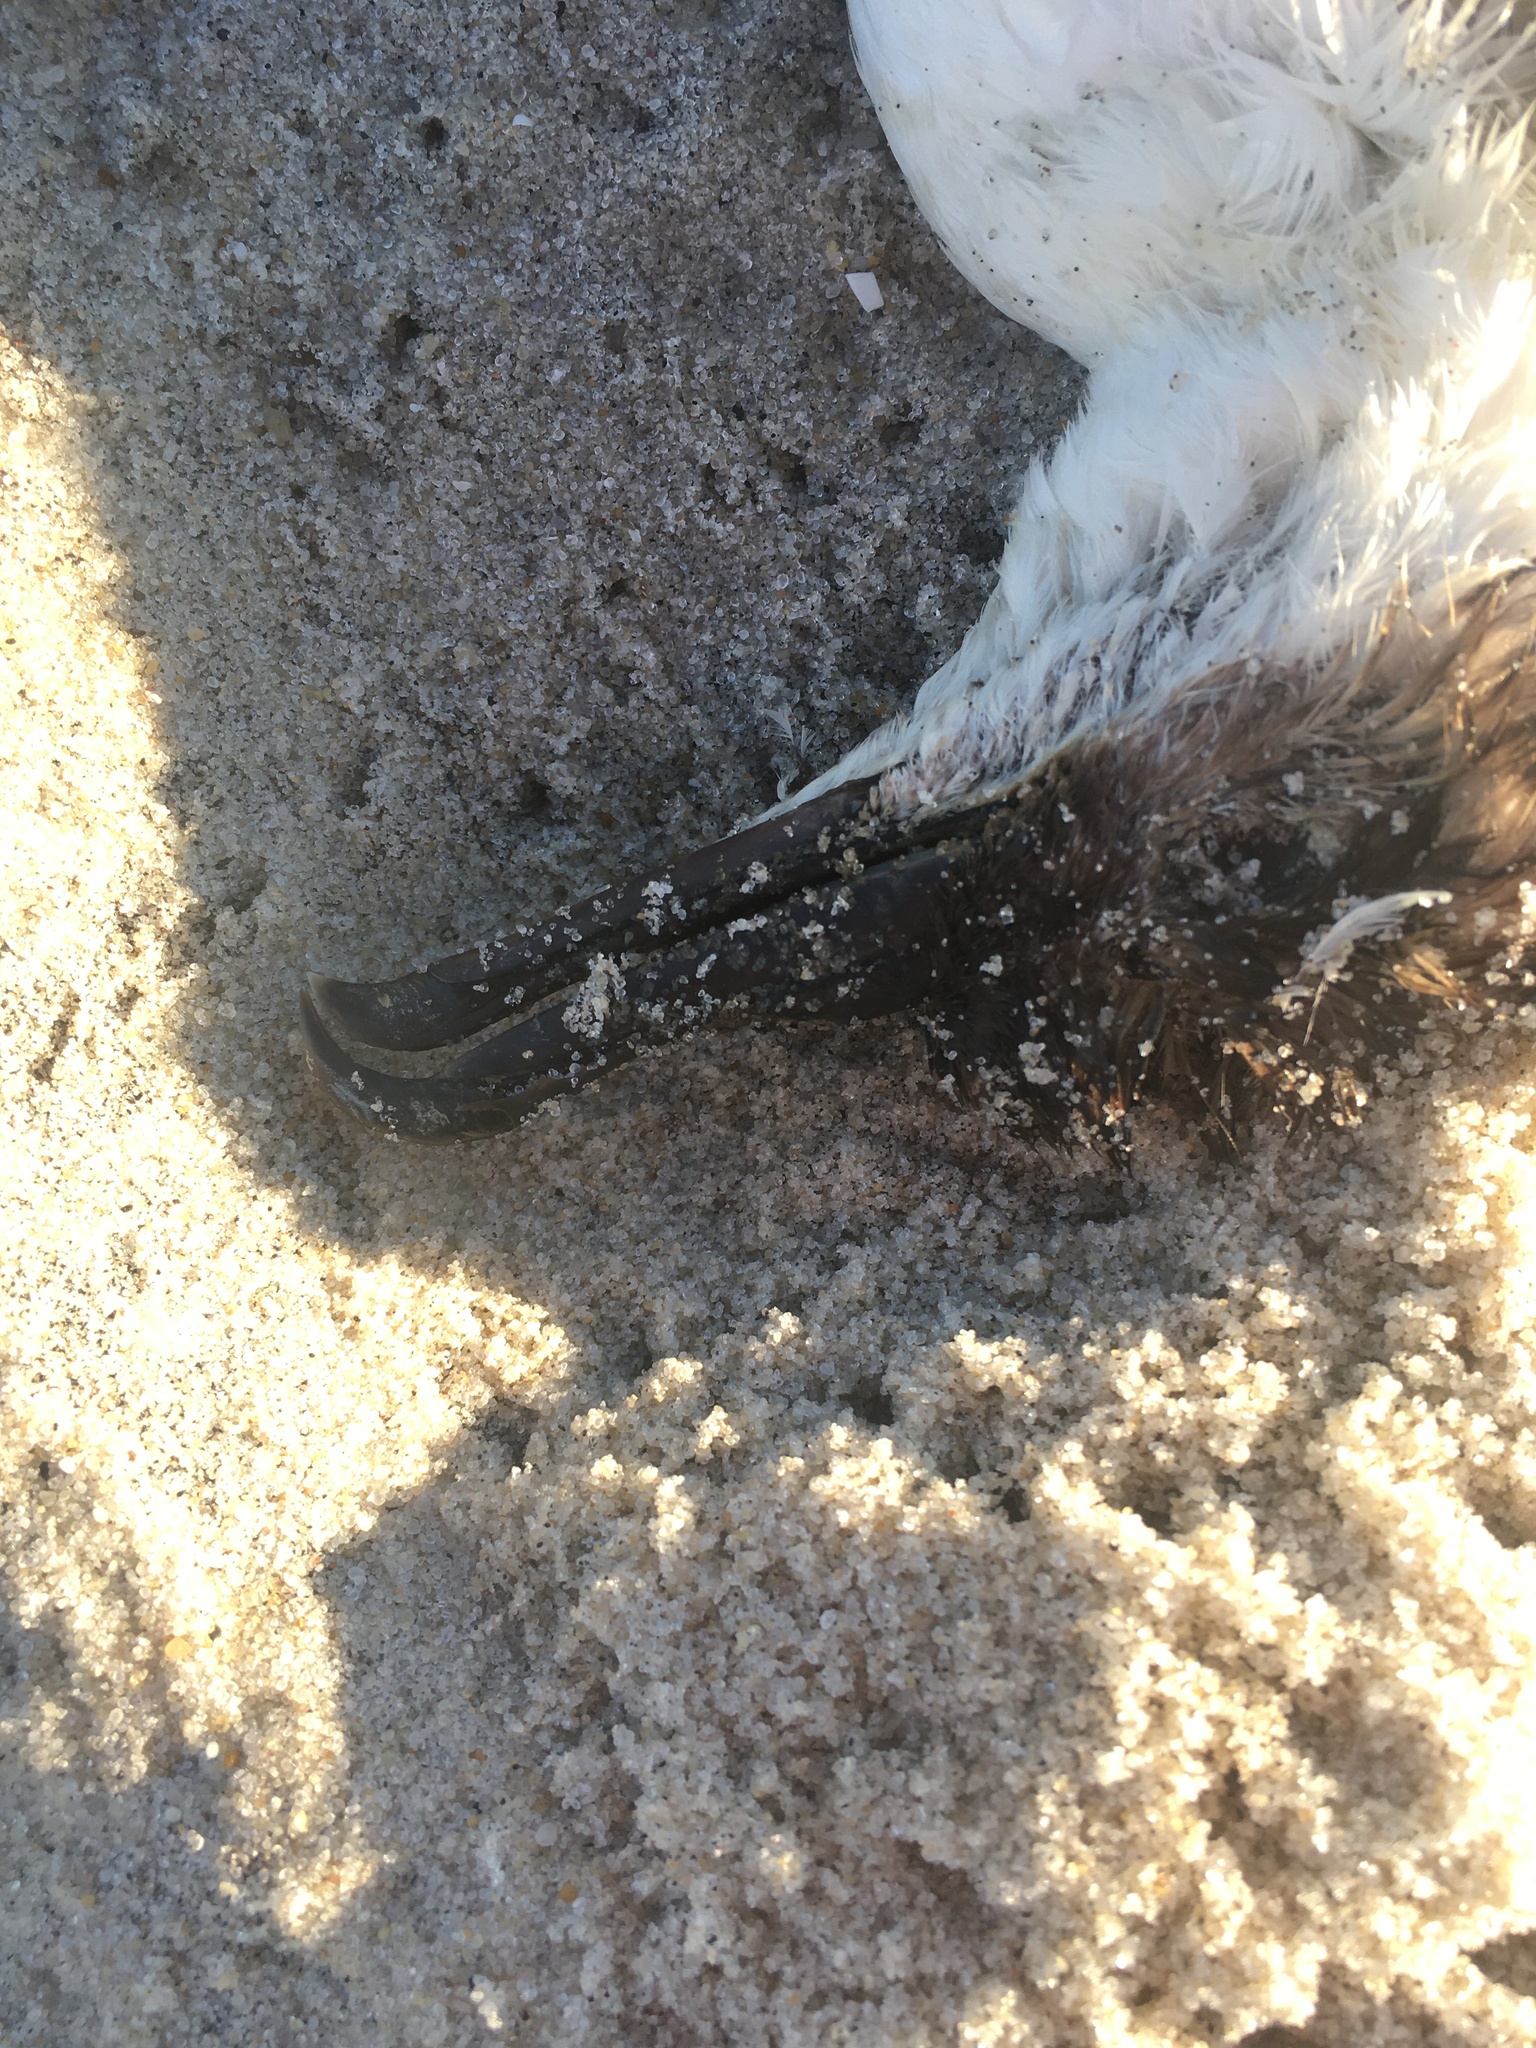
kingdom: Animalia
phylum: Chordata
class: Aves
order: Procellariiformes
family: Procellariidae
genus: Puffinus
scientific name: Puffinus gravis
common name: Great shearwater
